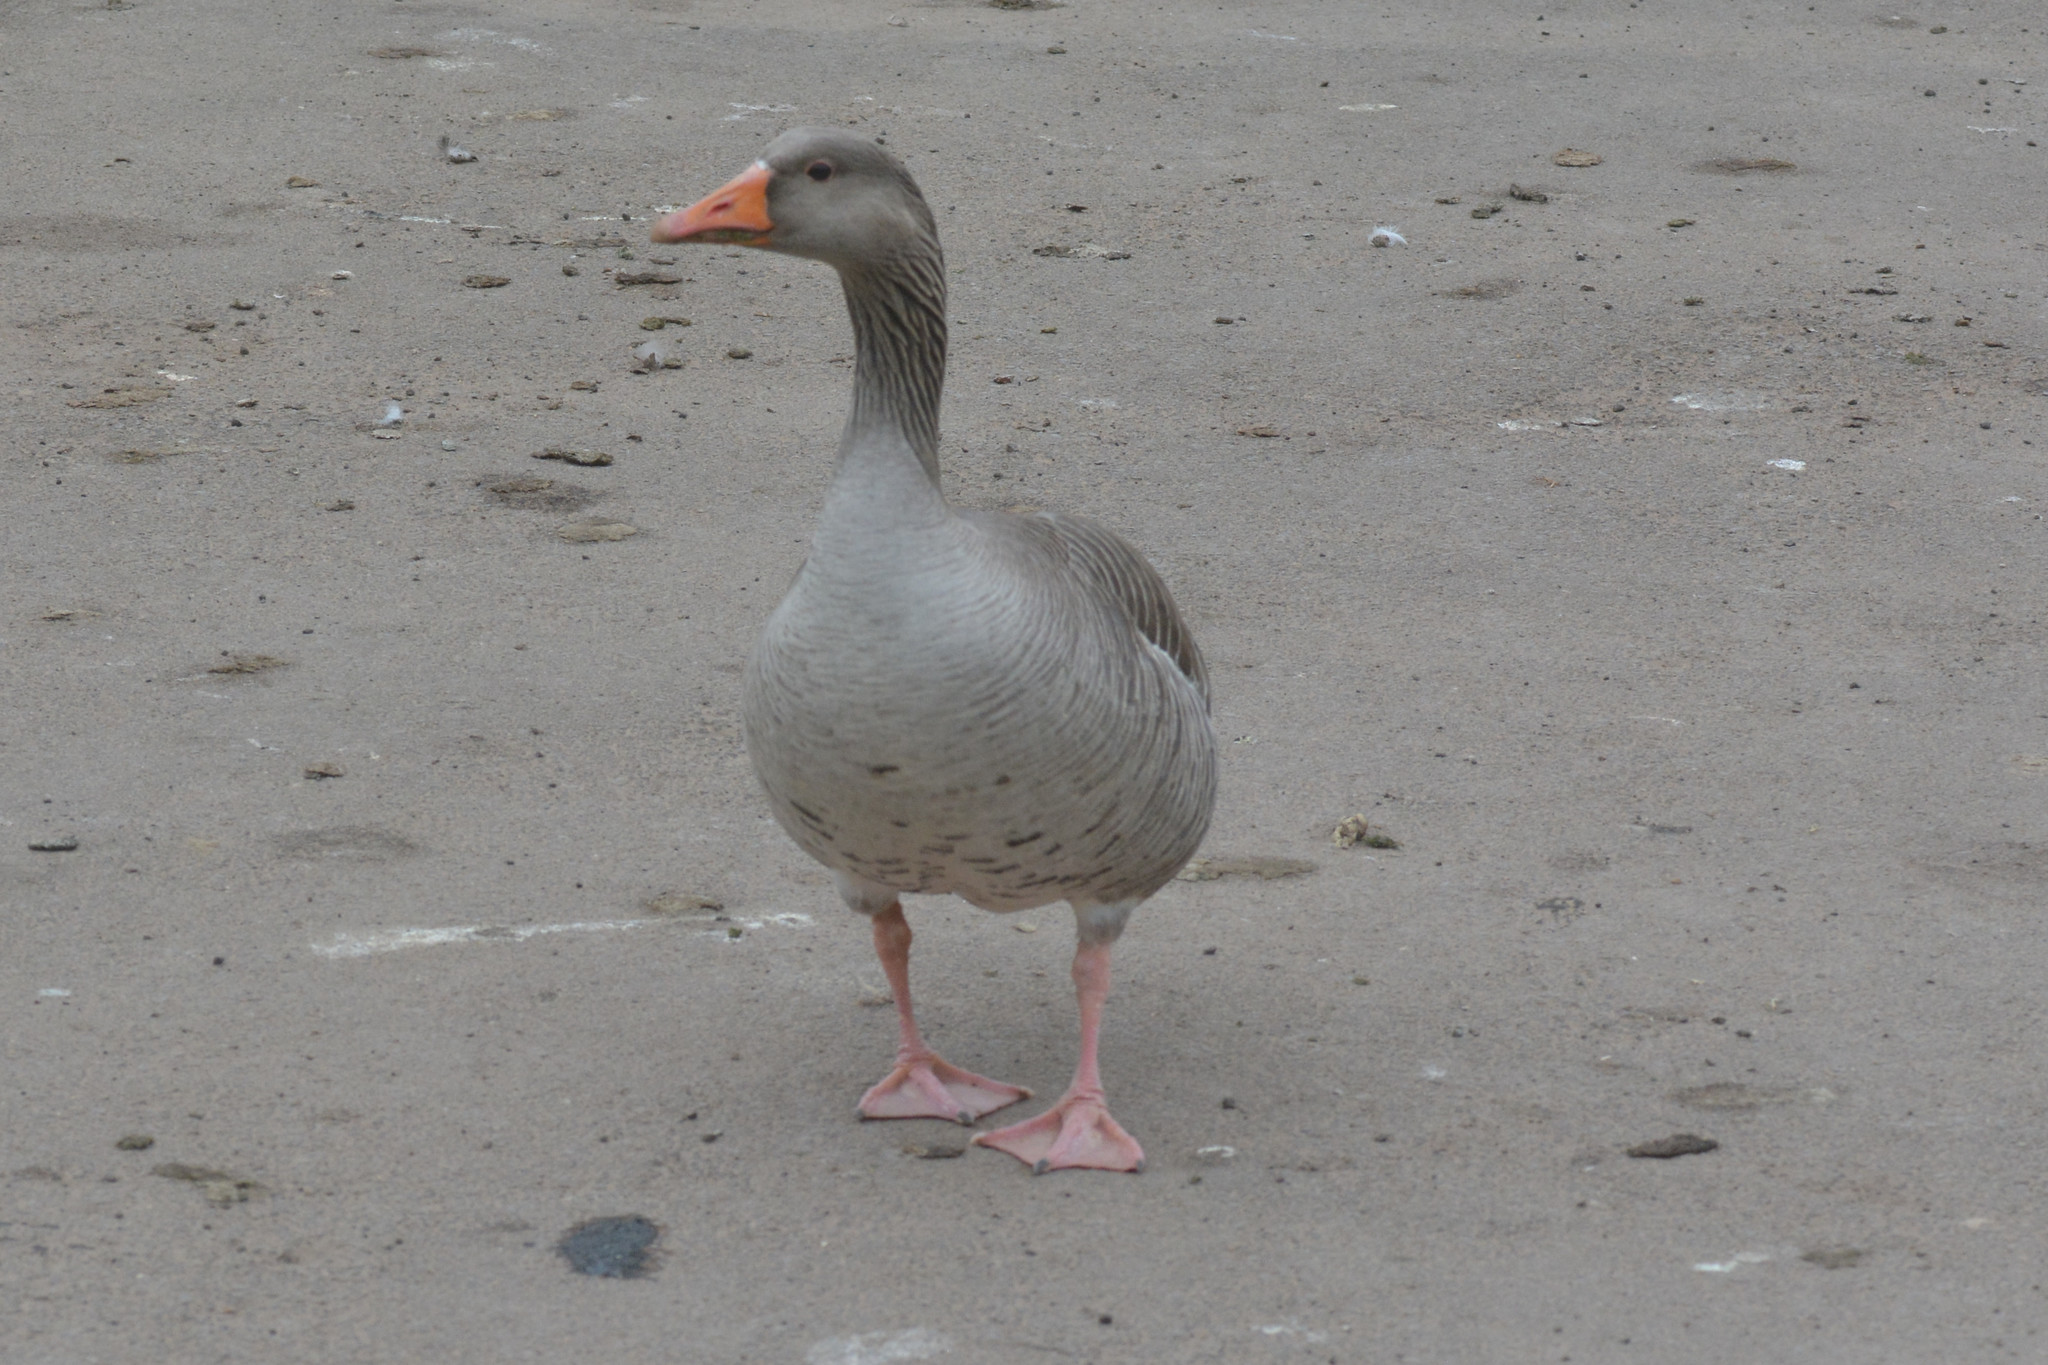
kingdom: Animalia
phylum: Chordata
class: Aves
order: Anseriformes
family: Anatidae
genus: Anser
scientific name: Anser anser
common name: Greylag goose
